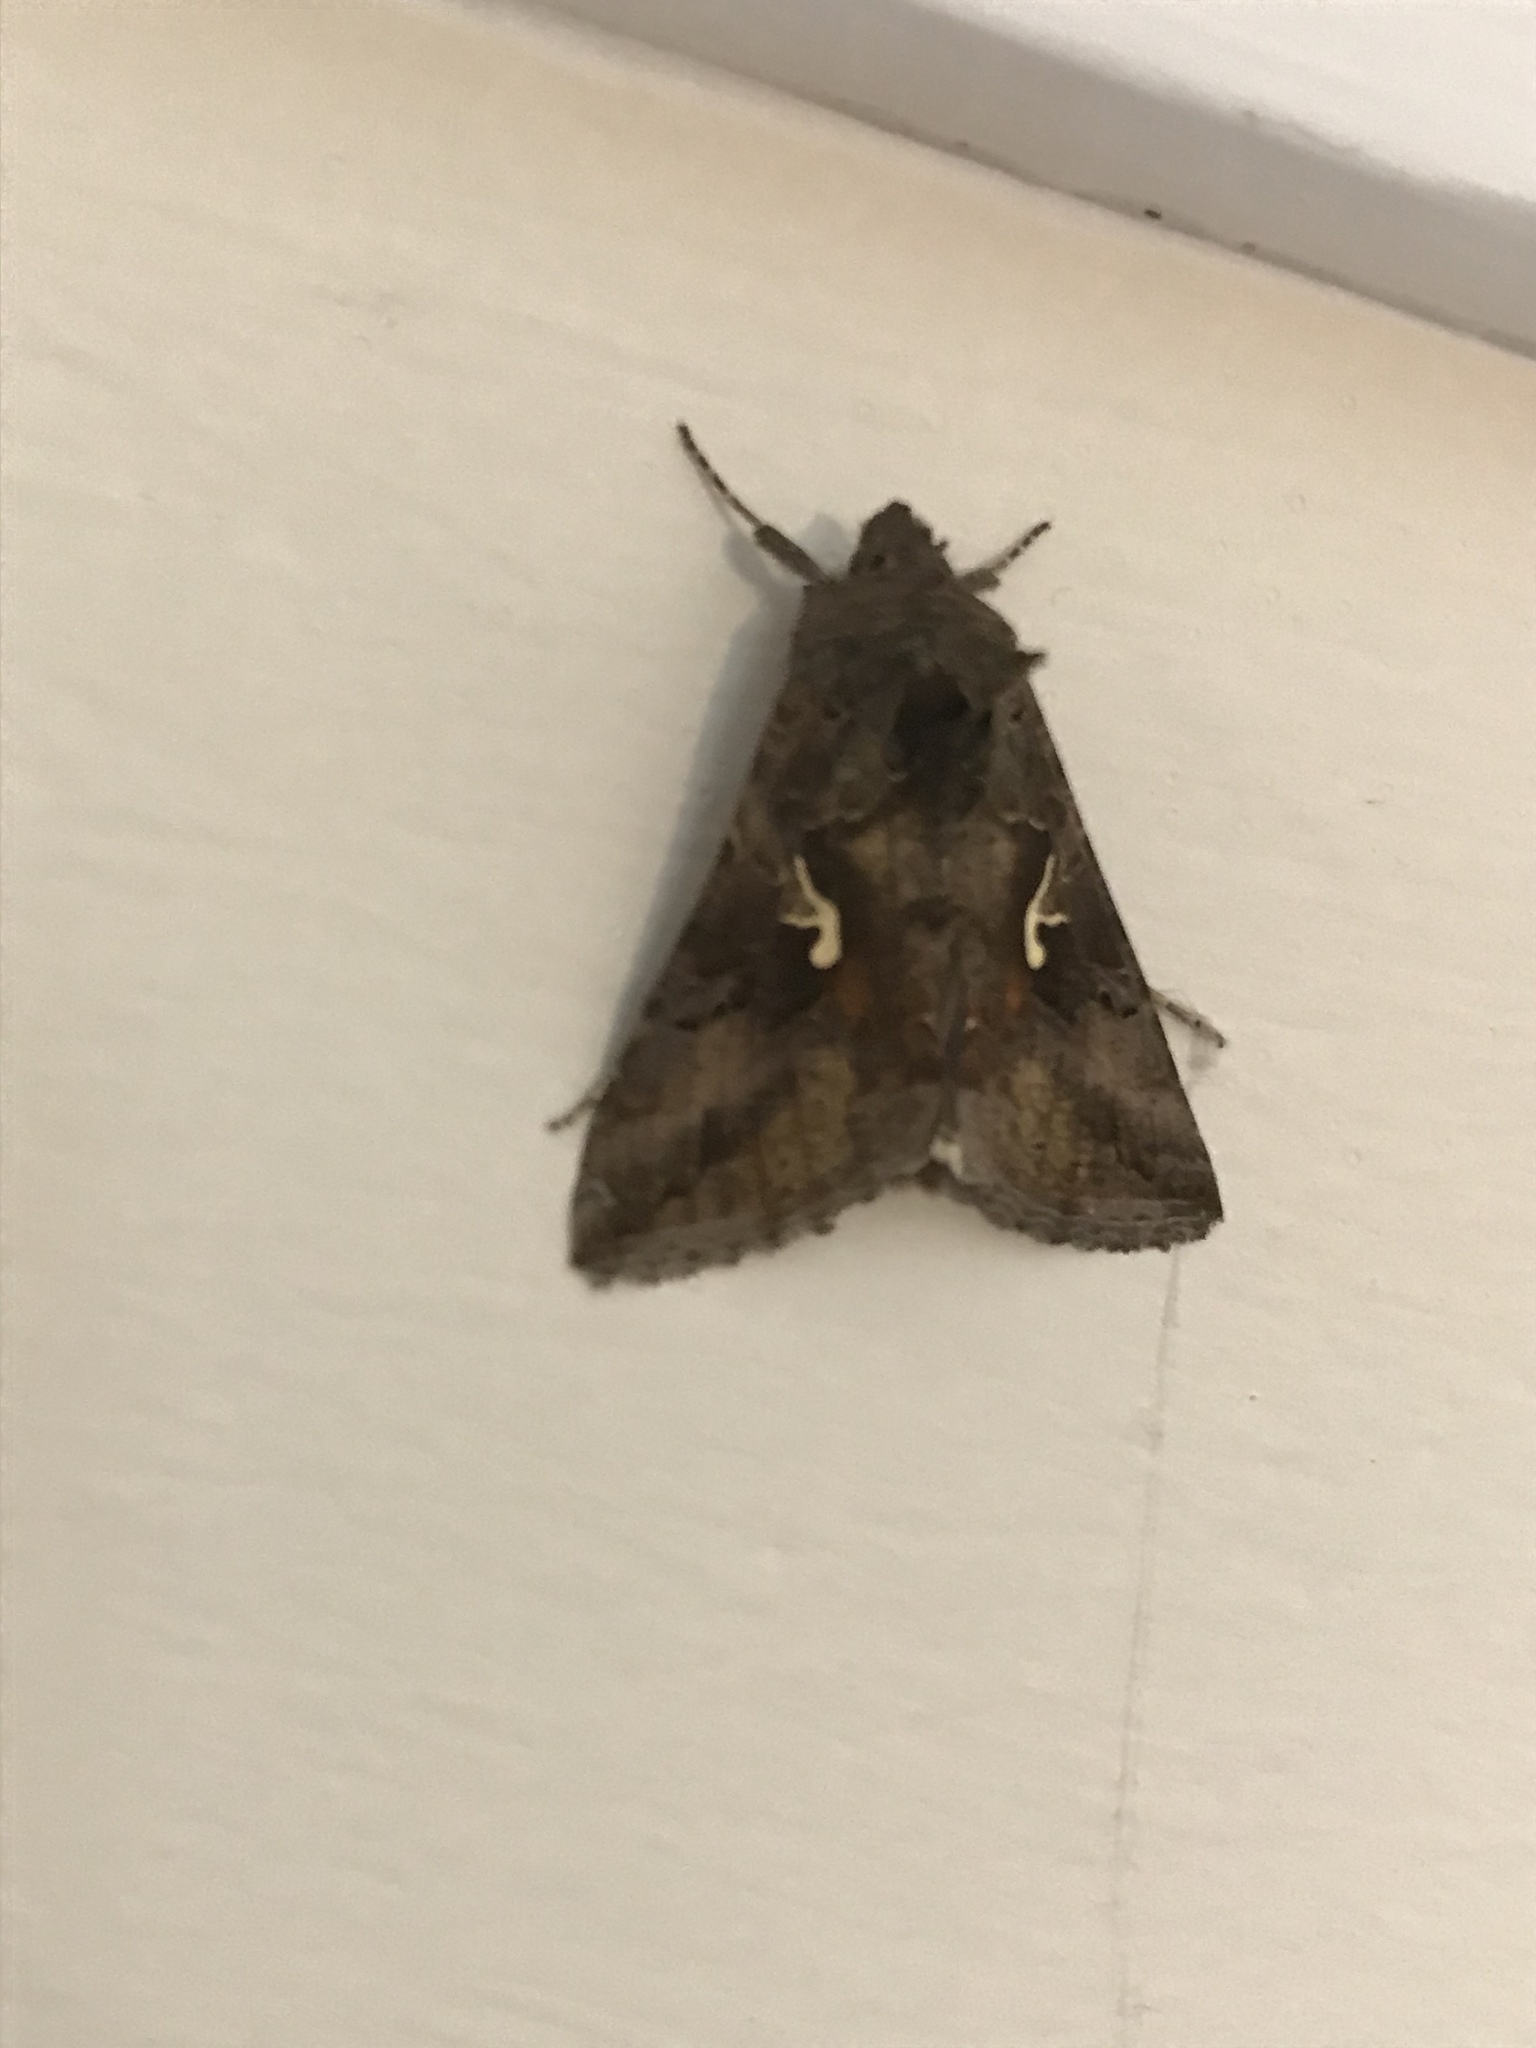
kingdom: Animalia
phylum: Arthropoda
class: Insecta
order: Lepidoptera
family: Noctuidae
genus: Autographa
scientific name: Autographa gamma
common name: Silver y
